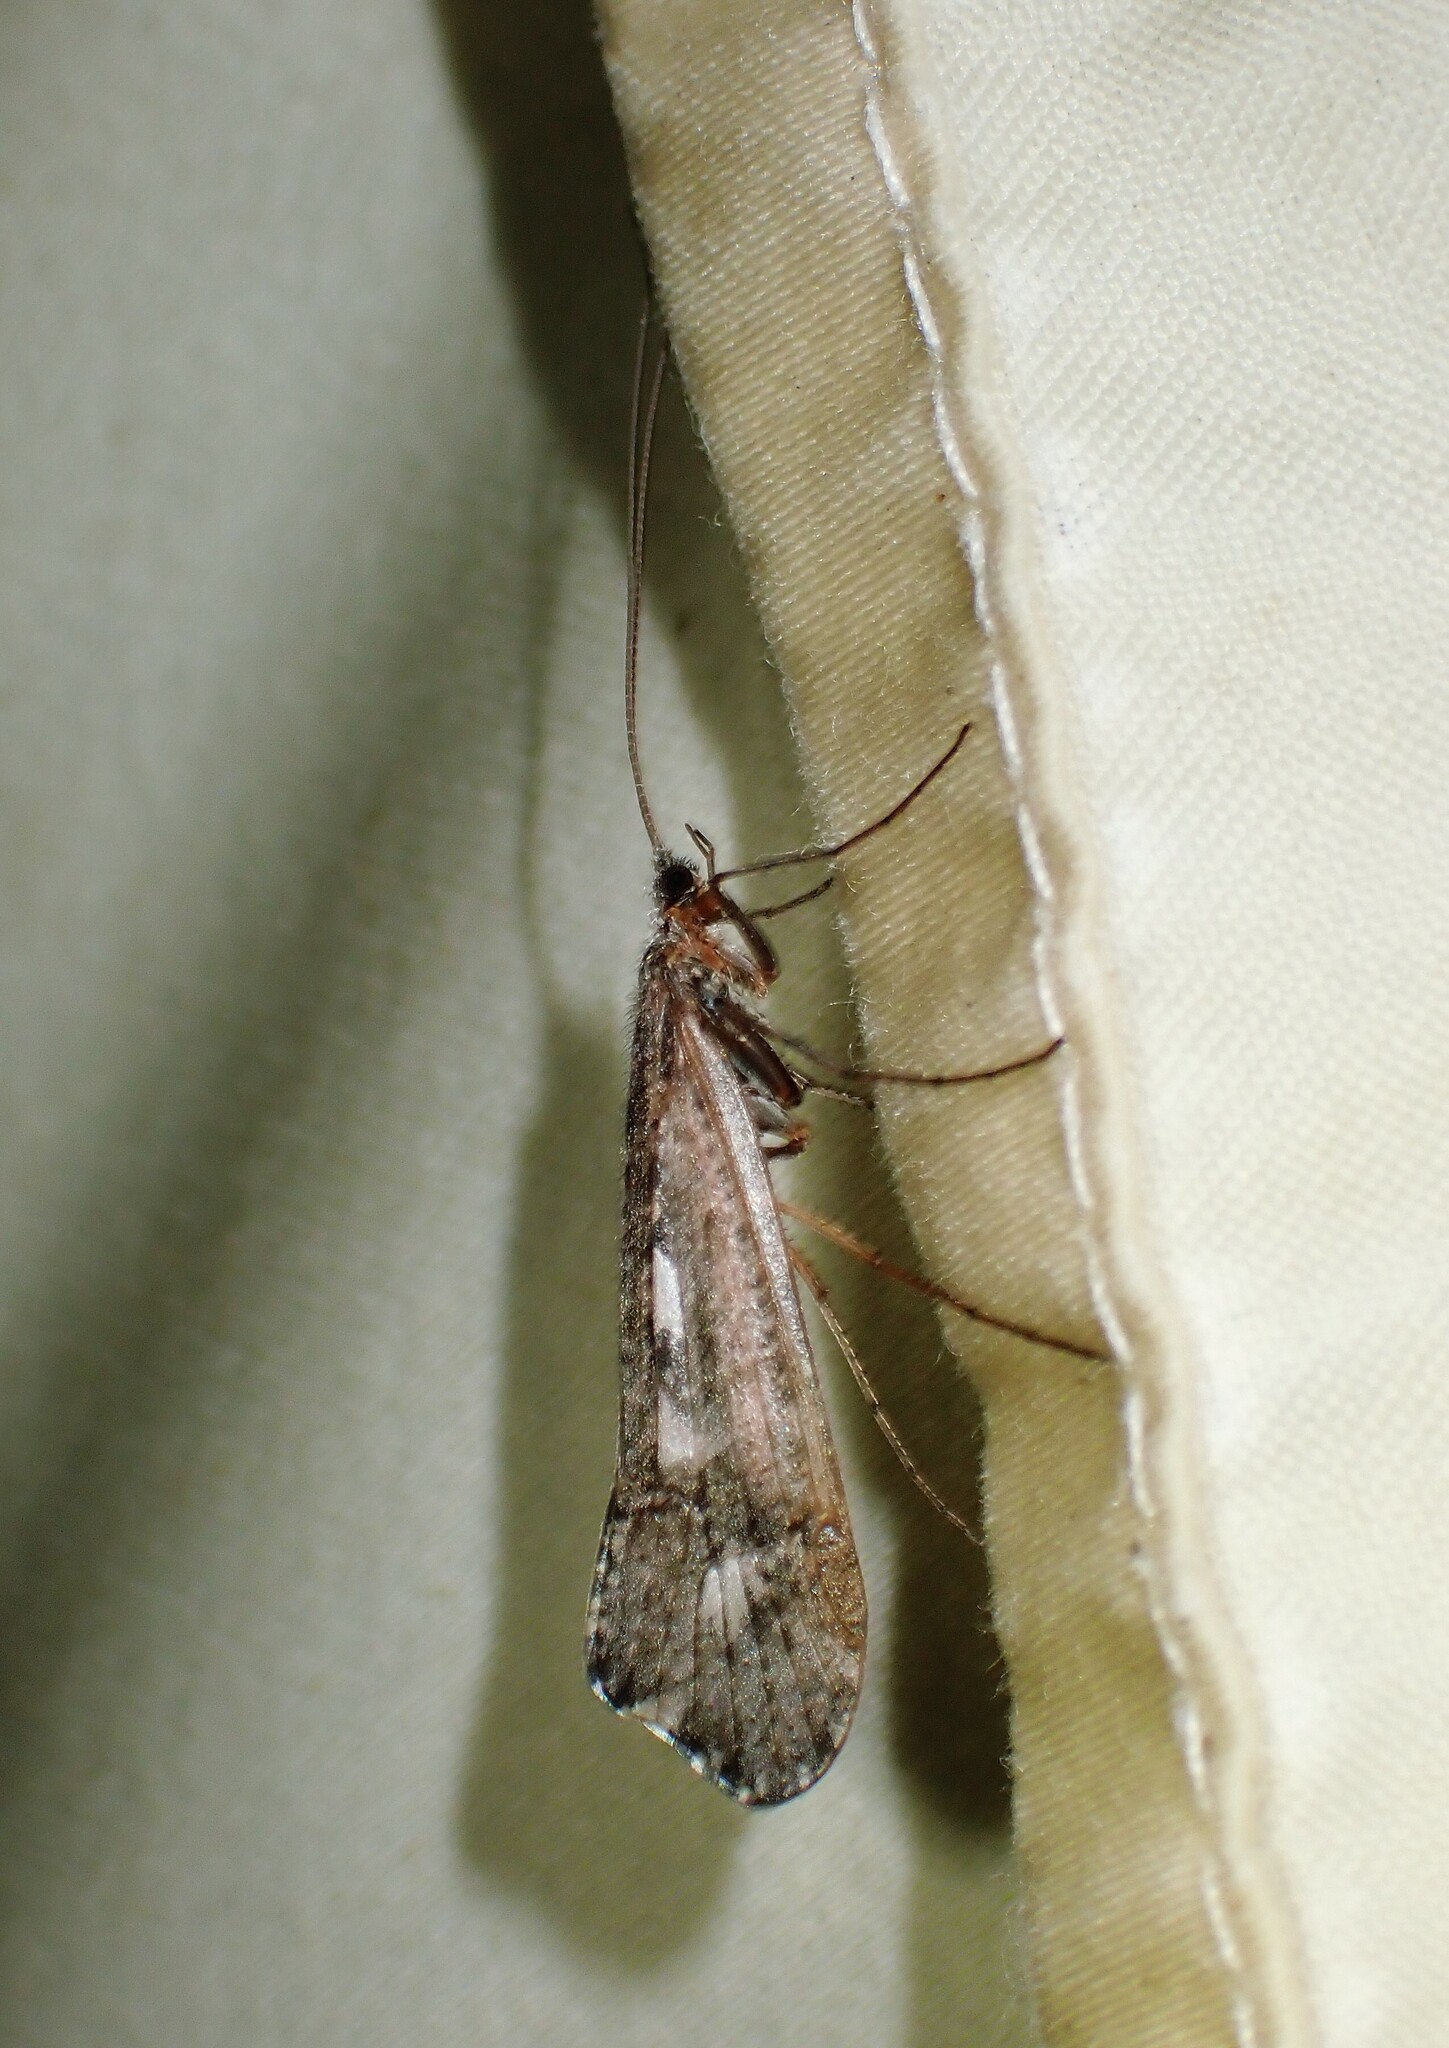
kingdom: Animalia
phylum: Arthropoda
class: Insecta
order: Trichoptera
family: Limnephilidae
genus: Glyphopsyche
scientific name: Glyphopsyche irrorata
